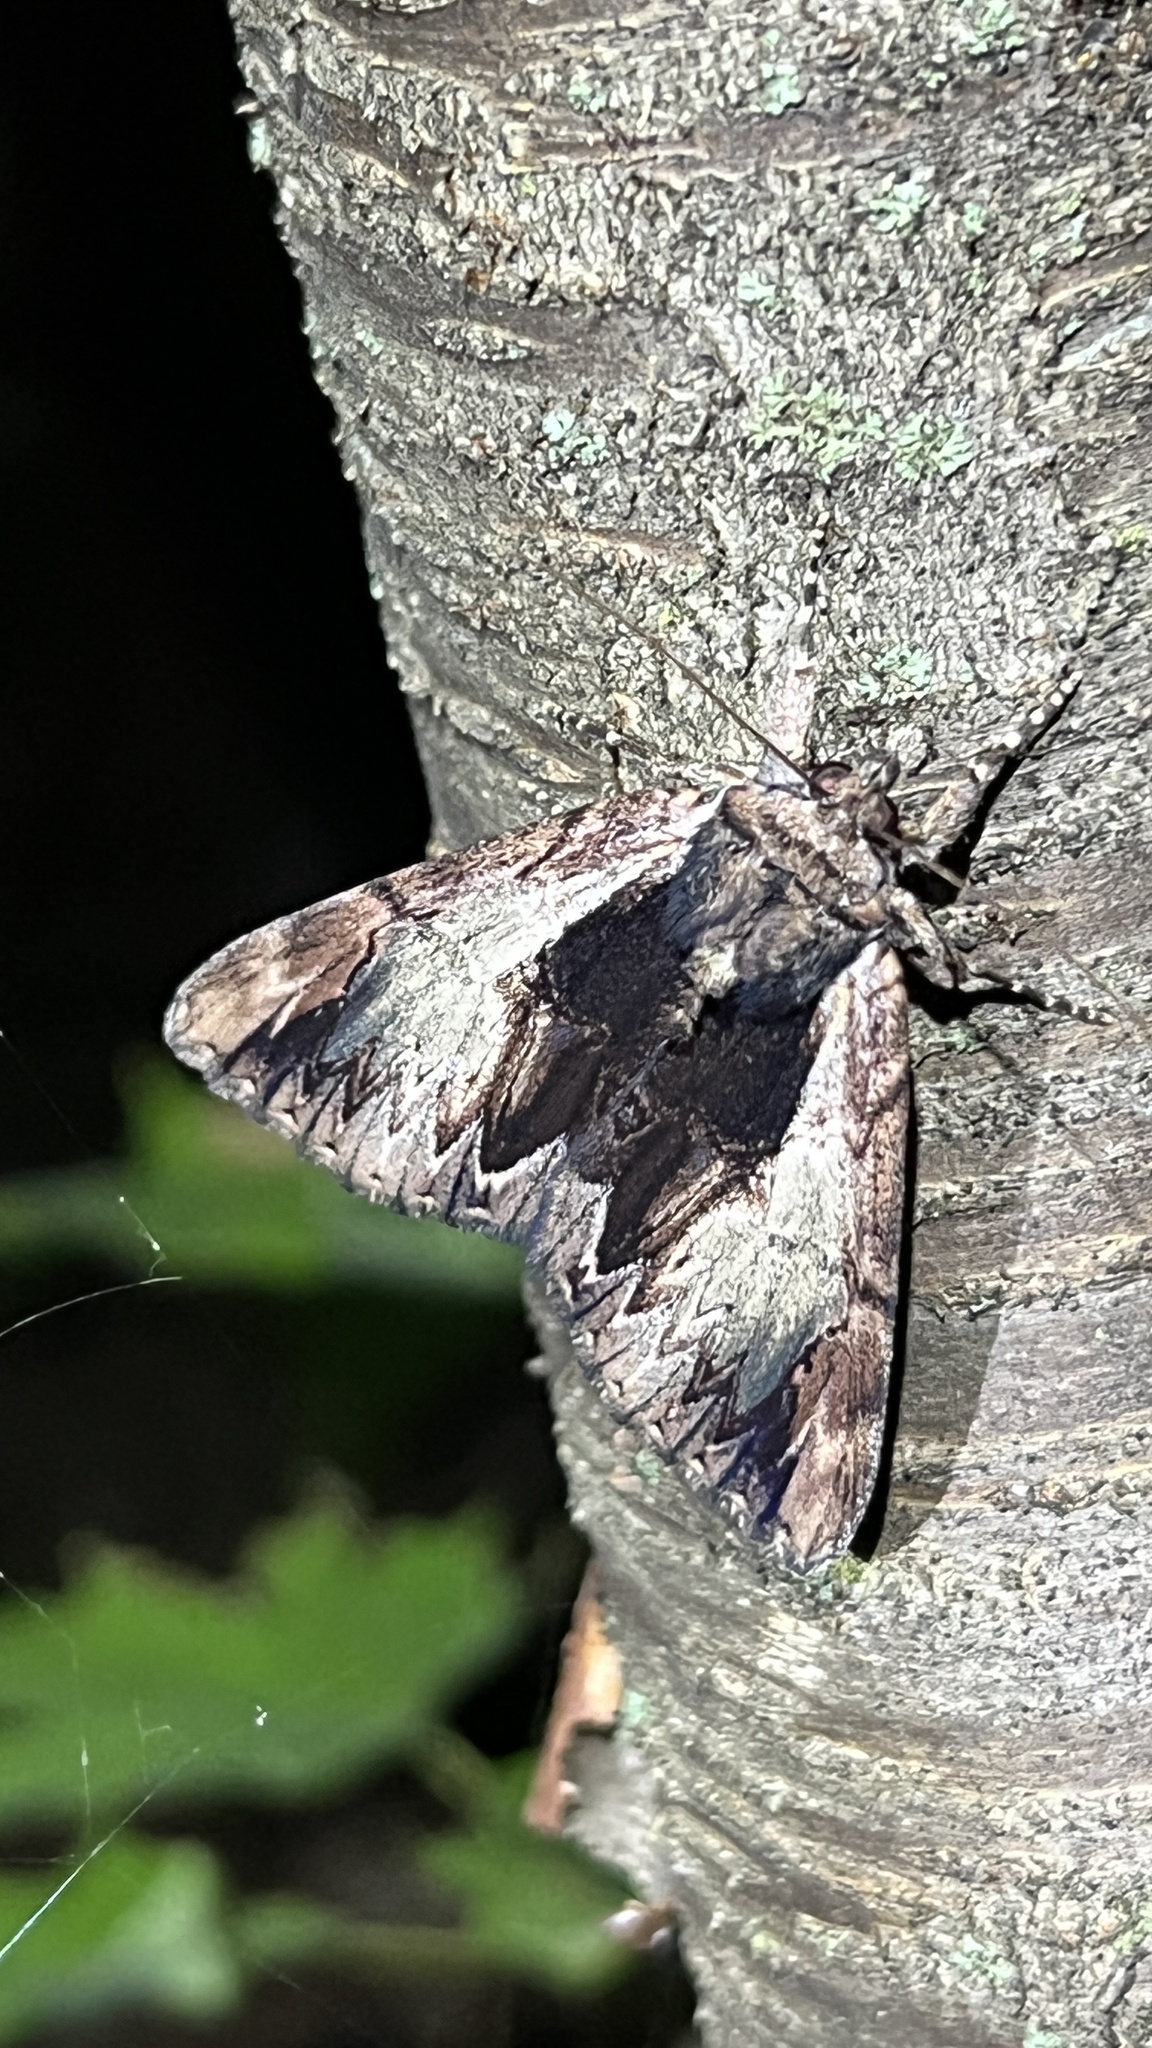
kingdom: Animalia
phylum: Arthropoda
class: Insecta
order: Lepidoptera
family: Erebidae
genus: Catocala
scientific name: Catocala ultronia
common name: Ultronia underwing
